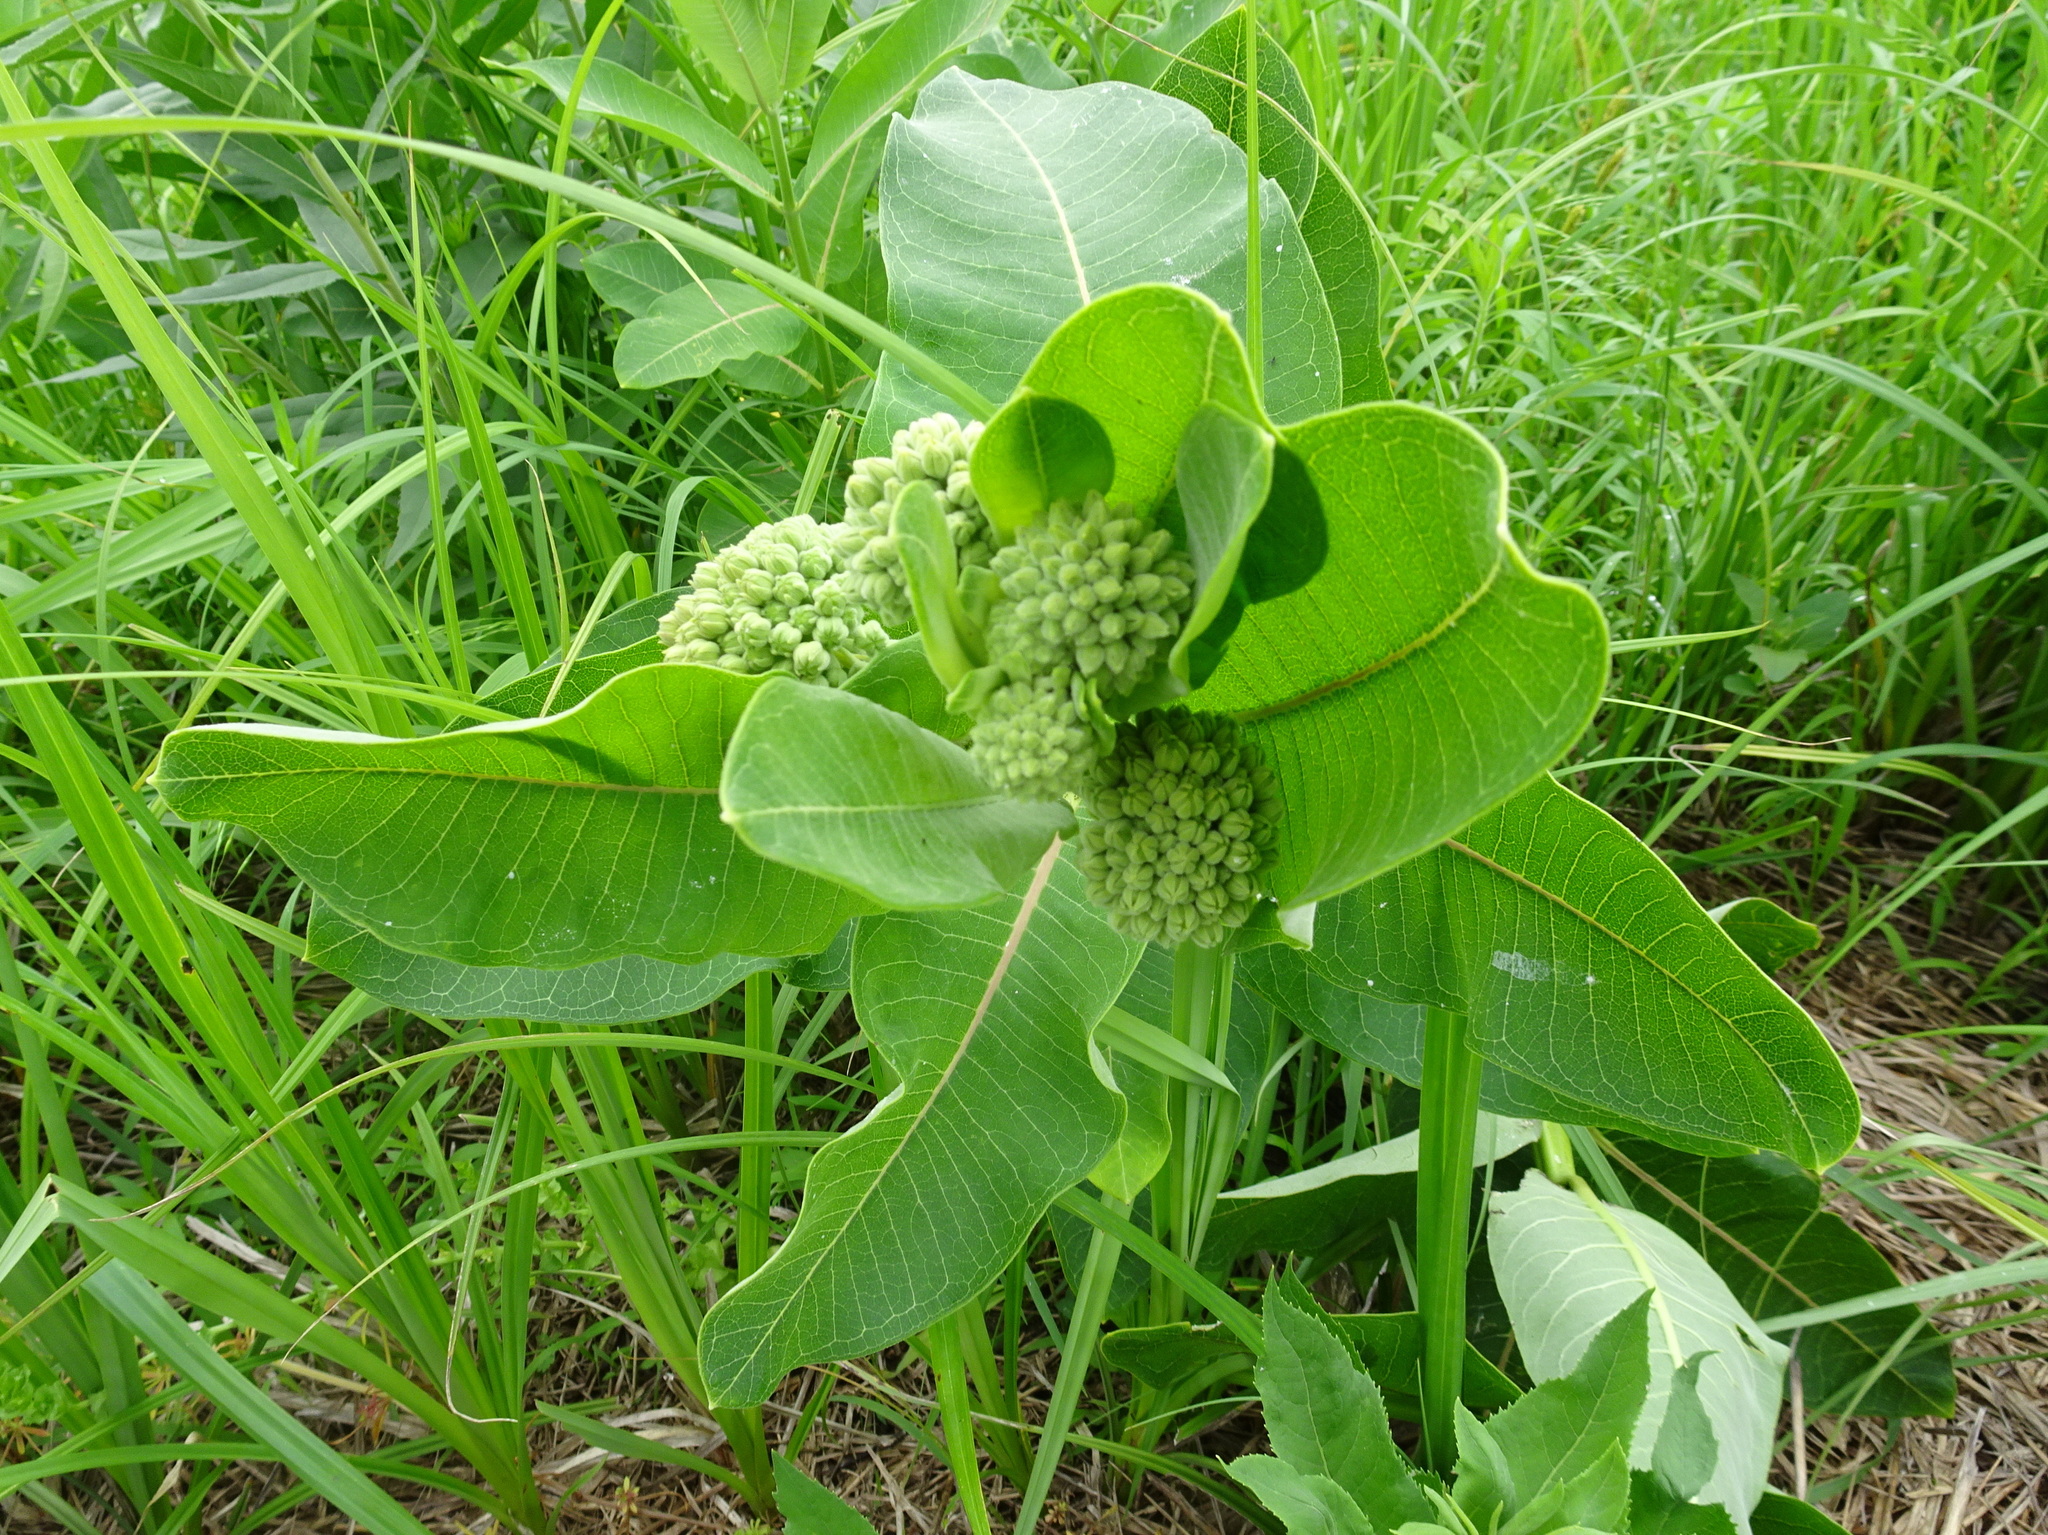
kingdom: Plantae
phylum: Tracheophyta
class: Magnoliopsida
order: Gentianales
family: Apocynaceae
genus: Asclepias
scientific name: Asclepias syriaca
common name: Common milkweed
